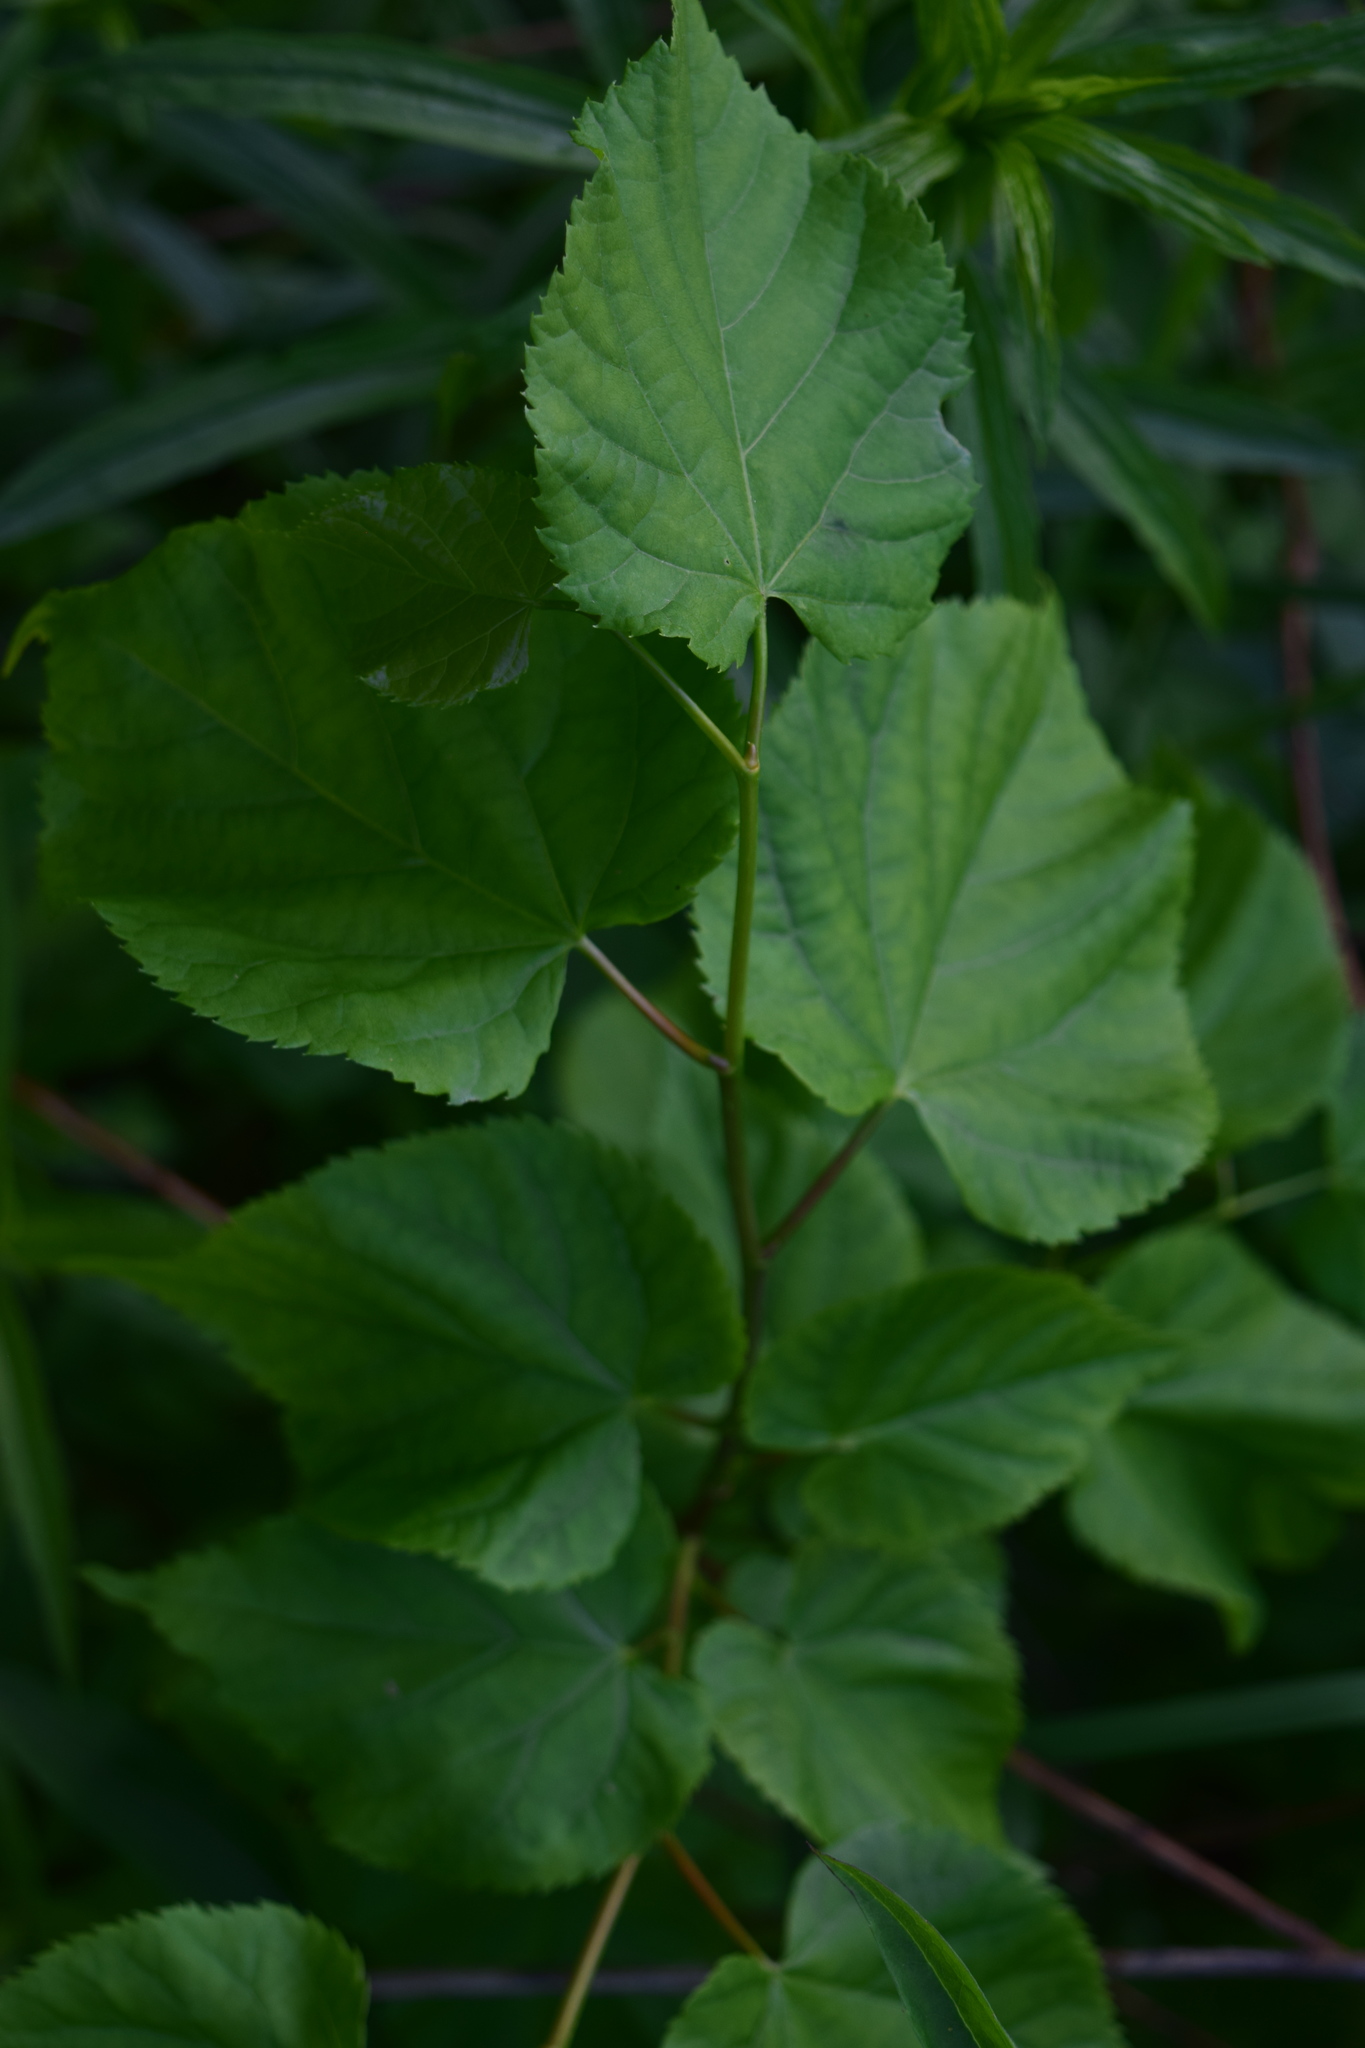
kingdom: Plantae
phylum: Tracheophyta
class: Magnoliopsida
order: Malvales
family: Malvaceae
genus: Tilia
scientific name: Tilia cordata
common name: Small-leaved lime
